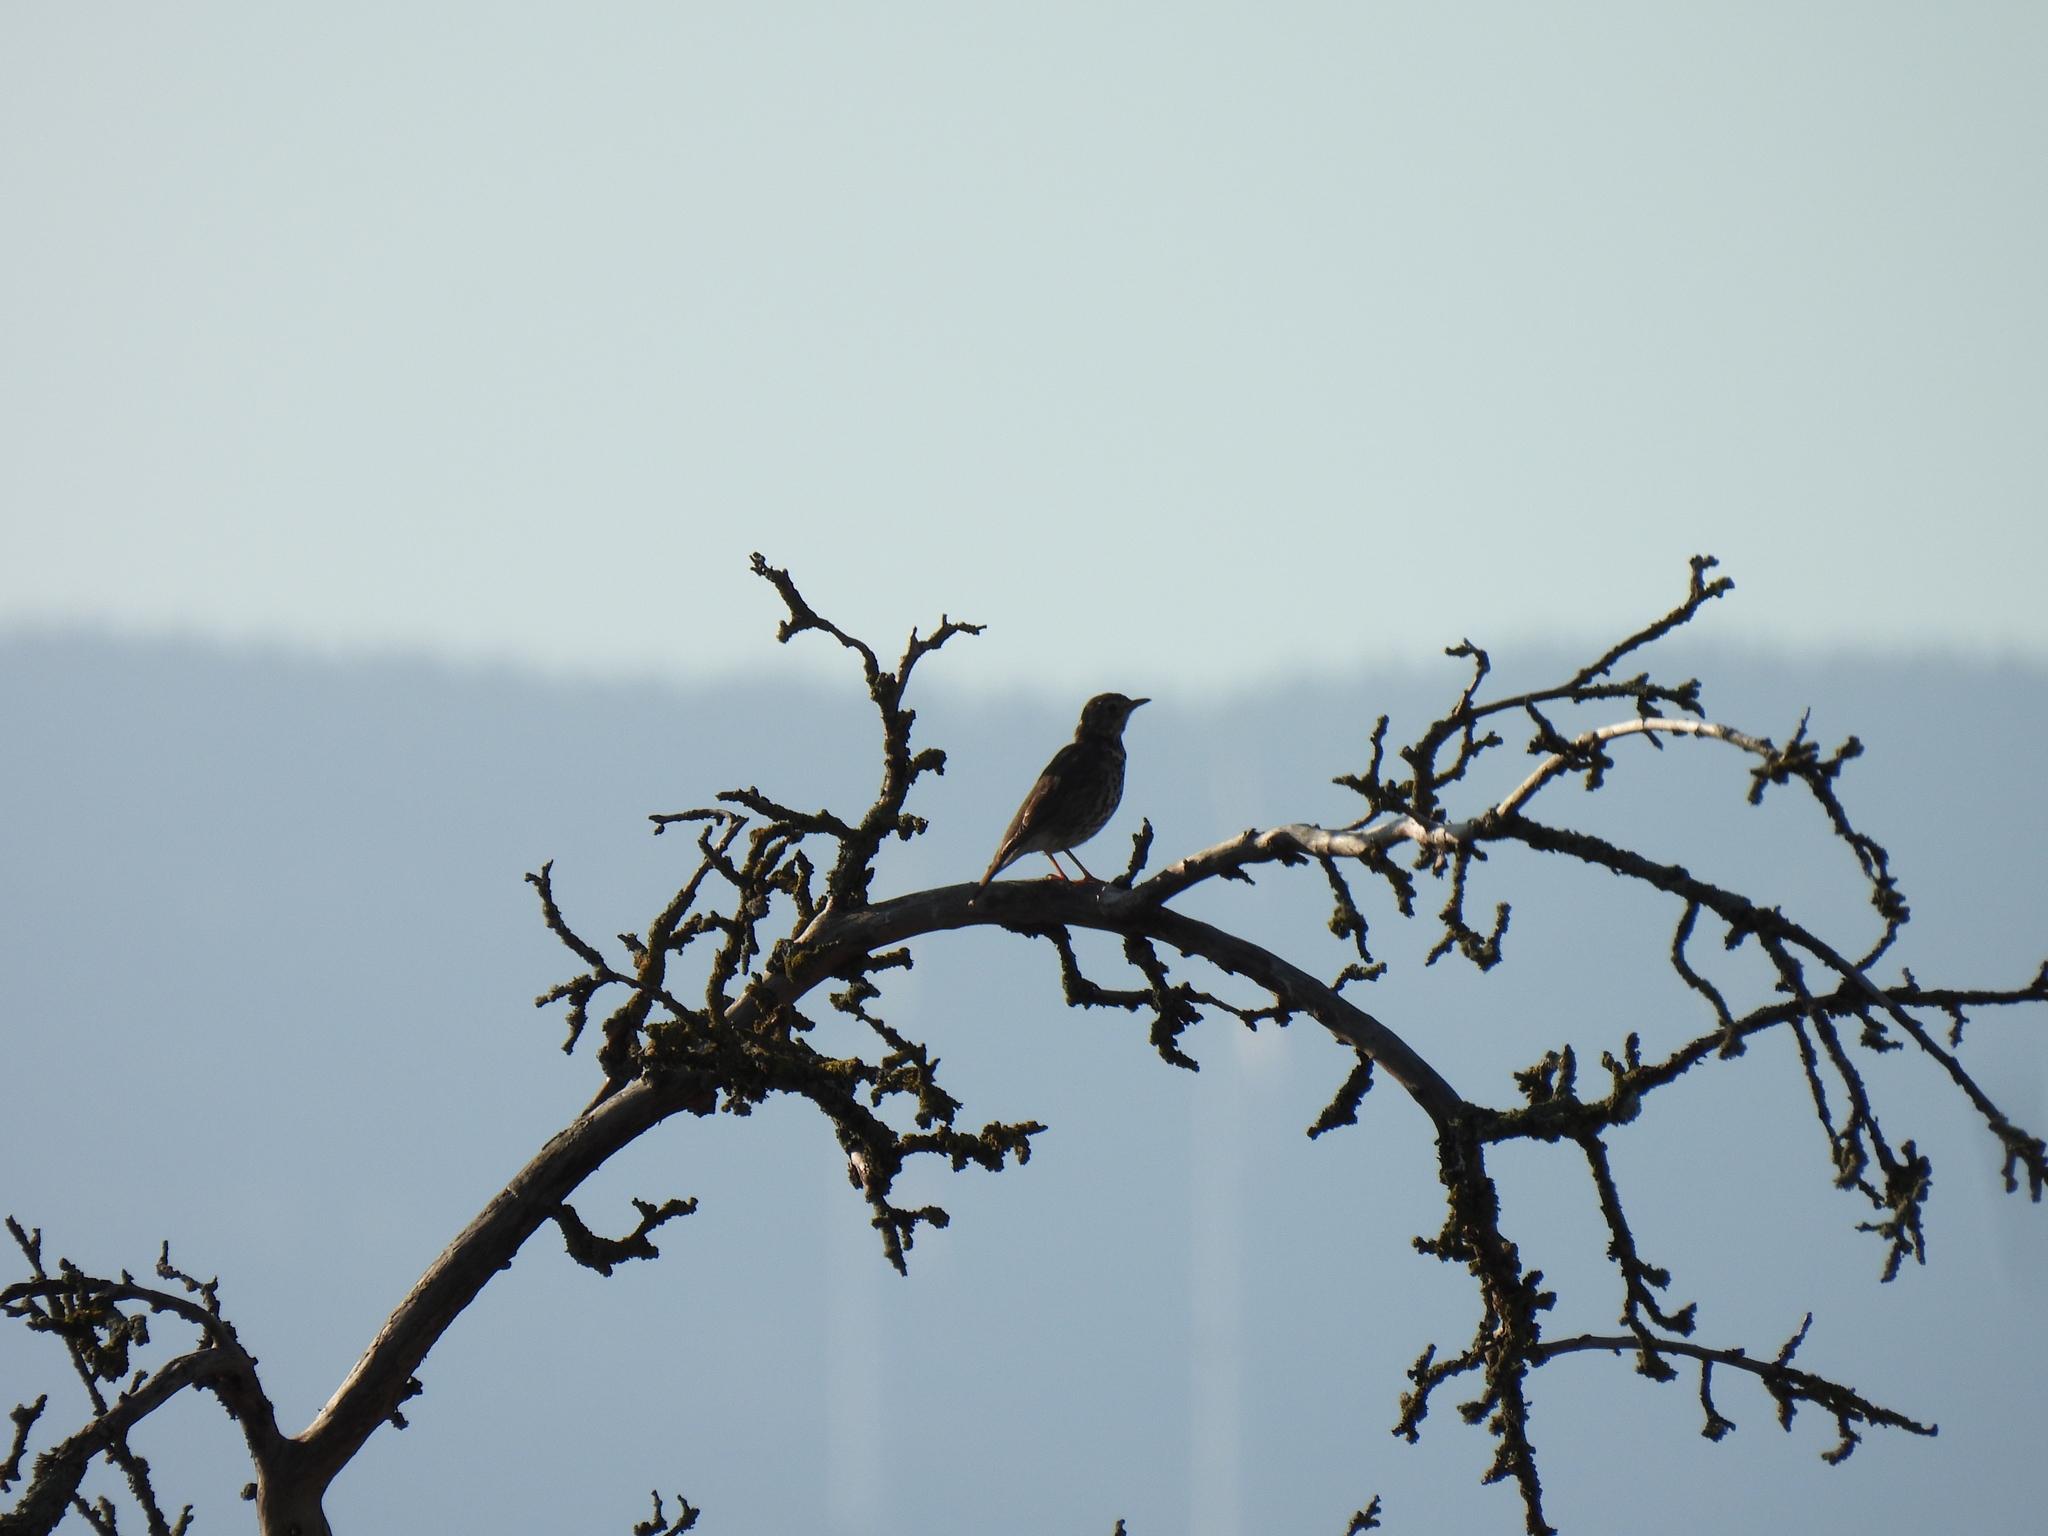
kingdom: Animalia
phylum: Chordata
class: Aves
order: Passeriformes
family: Turdidae
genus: Turdus
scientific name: Turdus philomelos
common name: Song thrush
